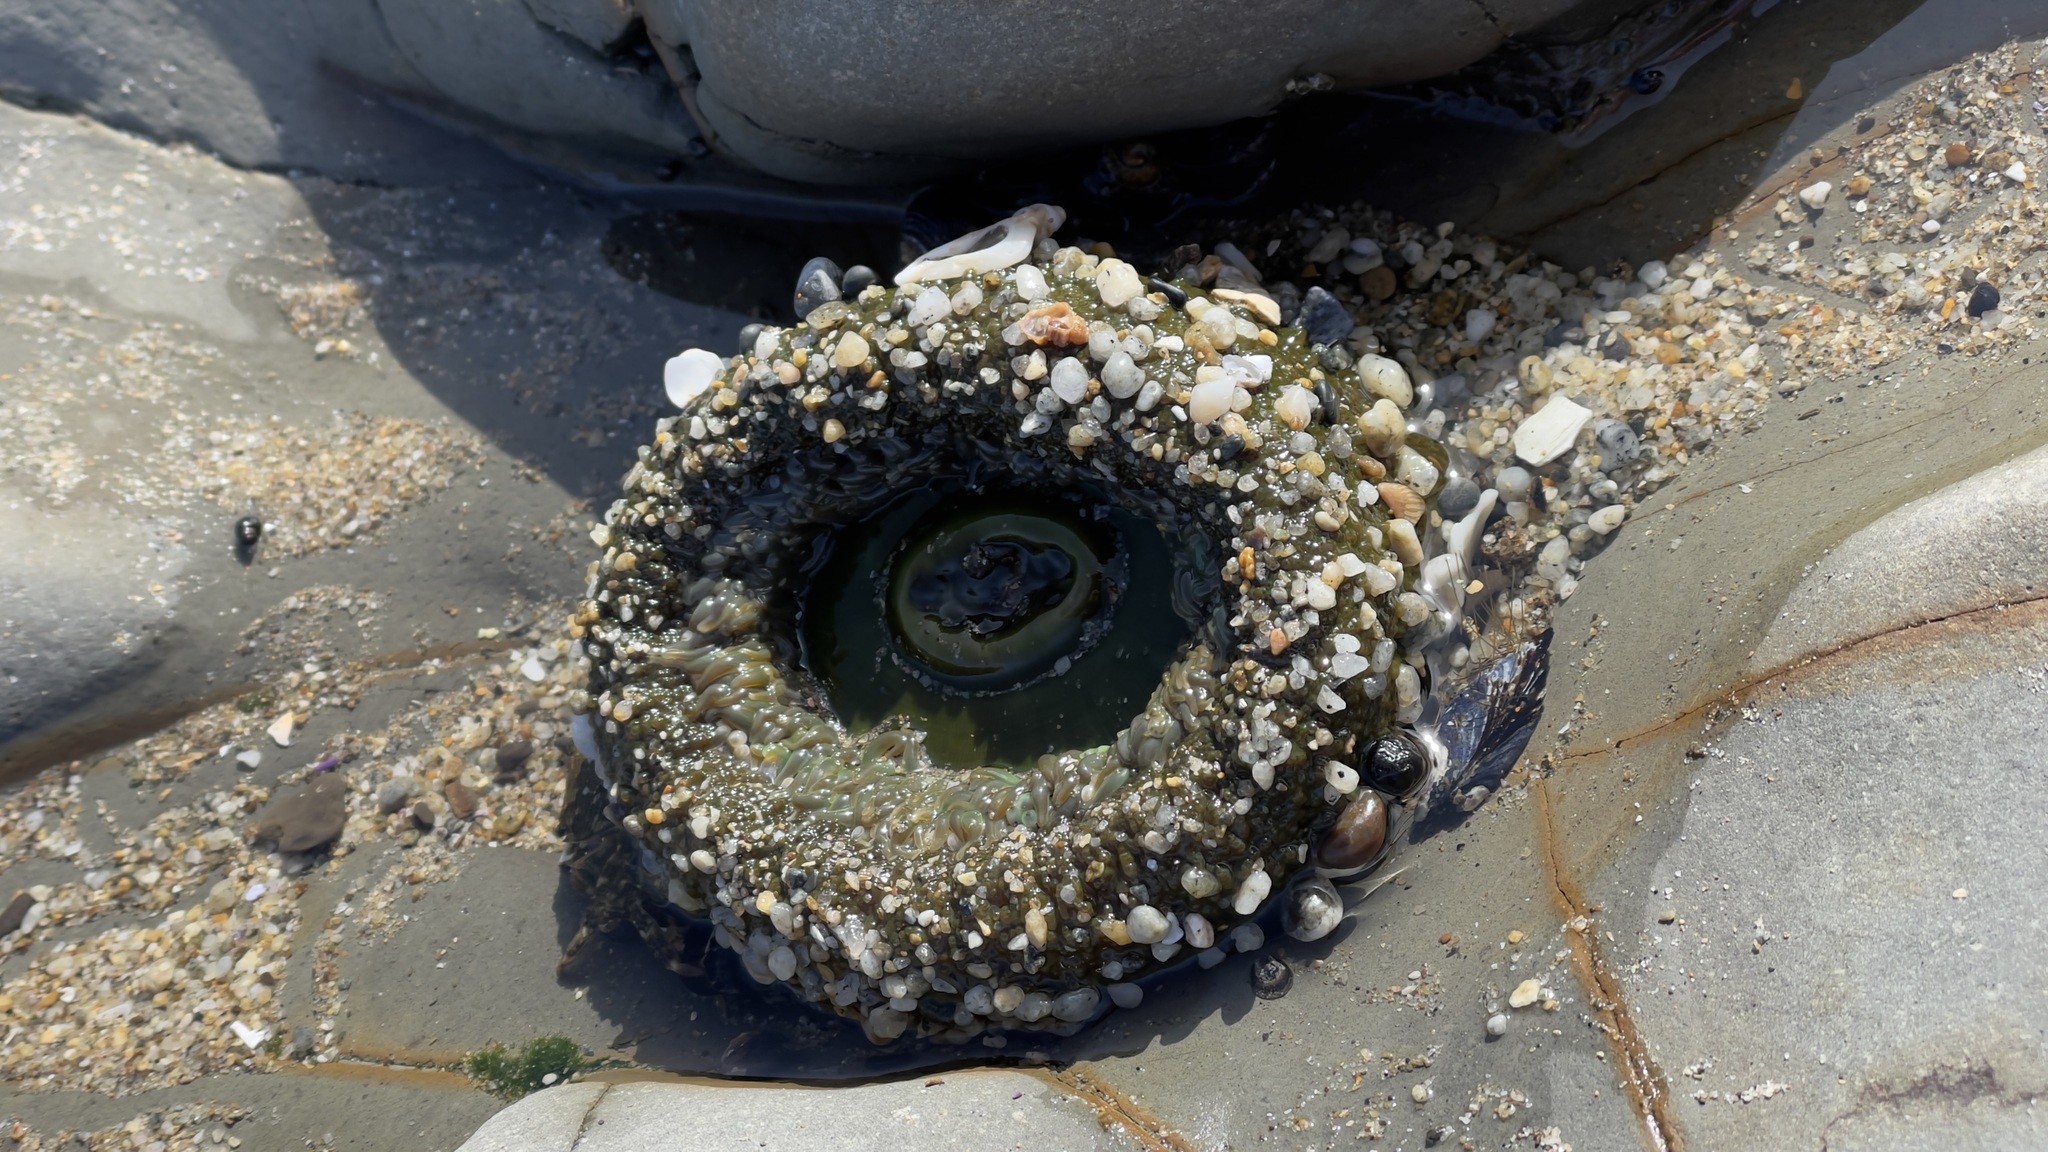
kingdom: Animalia
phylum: Cnidaria
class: Anthozoa
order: Actiniaria
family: Actiniidae
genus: Anthopleura
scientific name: Anthopleura xanthogrammica
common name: Giant green anemone
